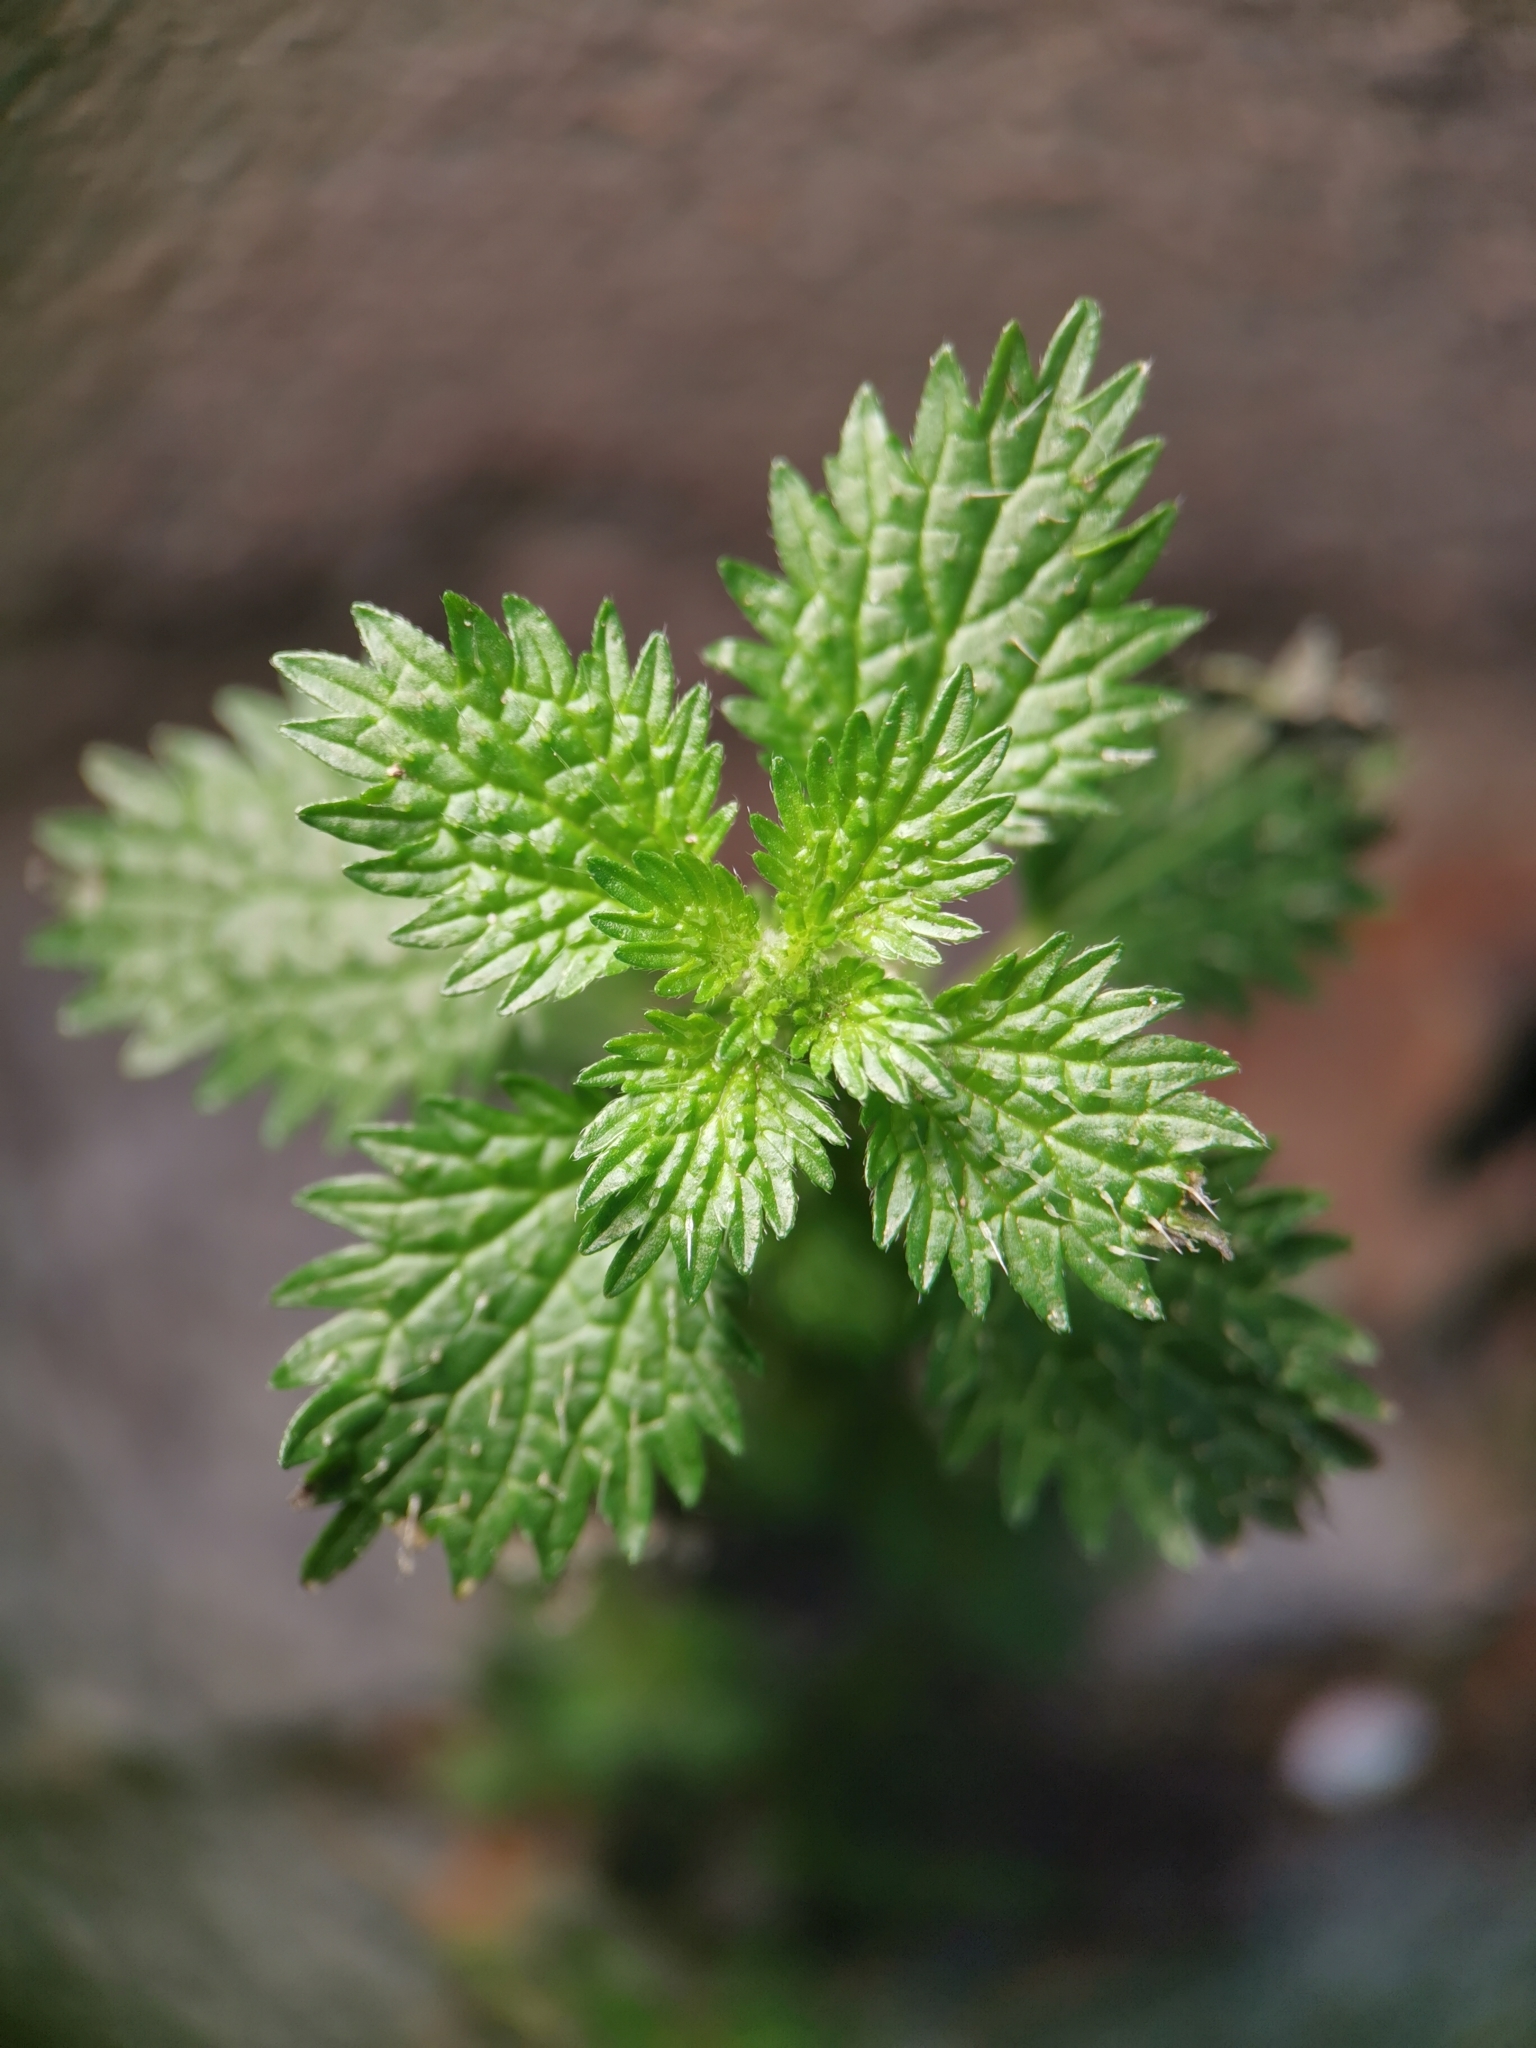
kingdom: Plantae
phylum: Tracheophyta
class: Magnoliopsida
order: Rosales
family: Urticaceae
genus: Urtica
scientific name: Urtica urens
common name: Dwarf nettle
